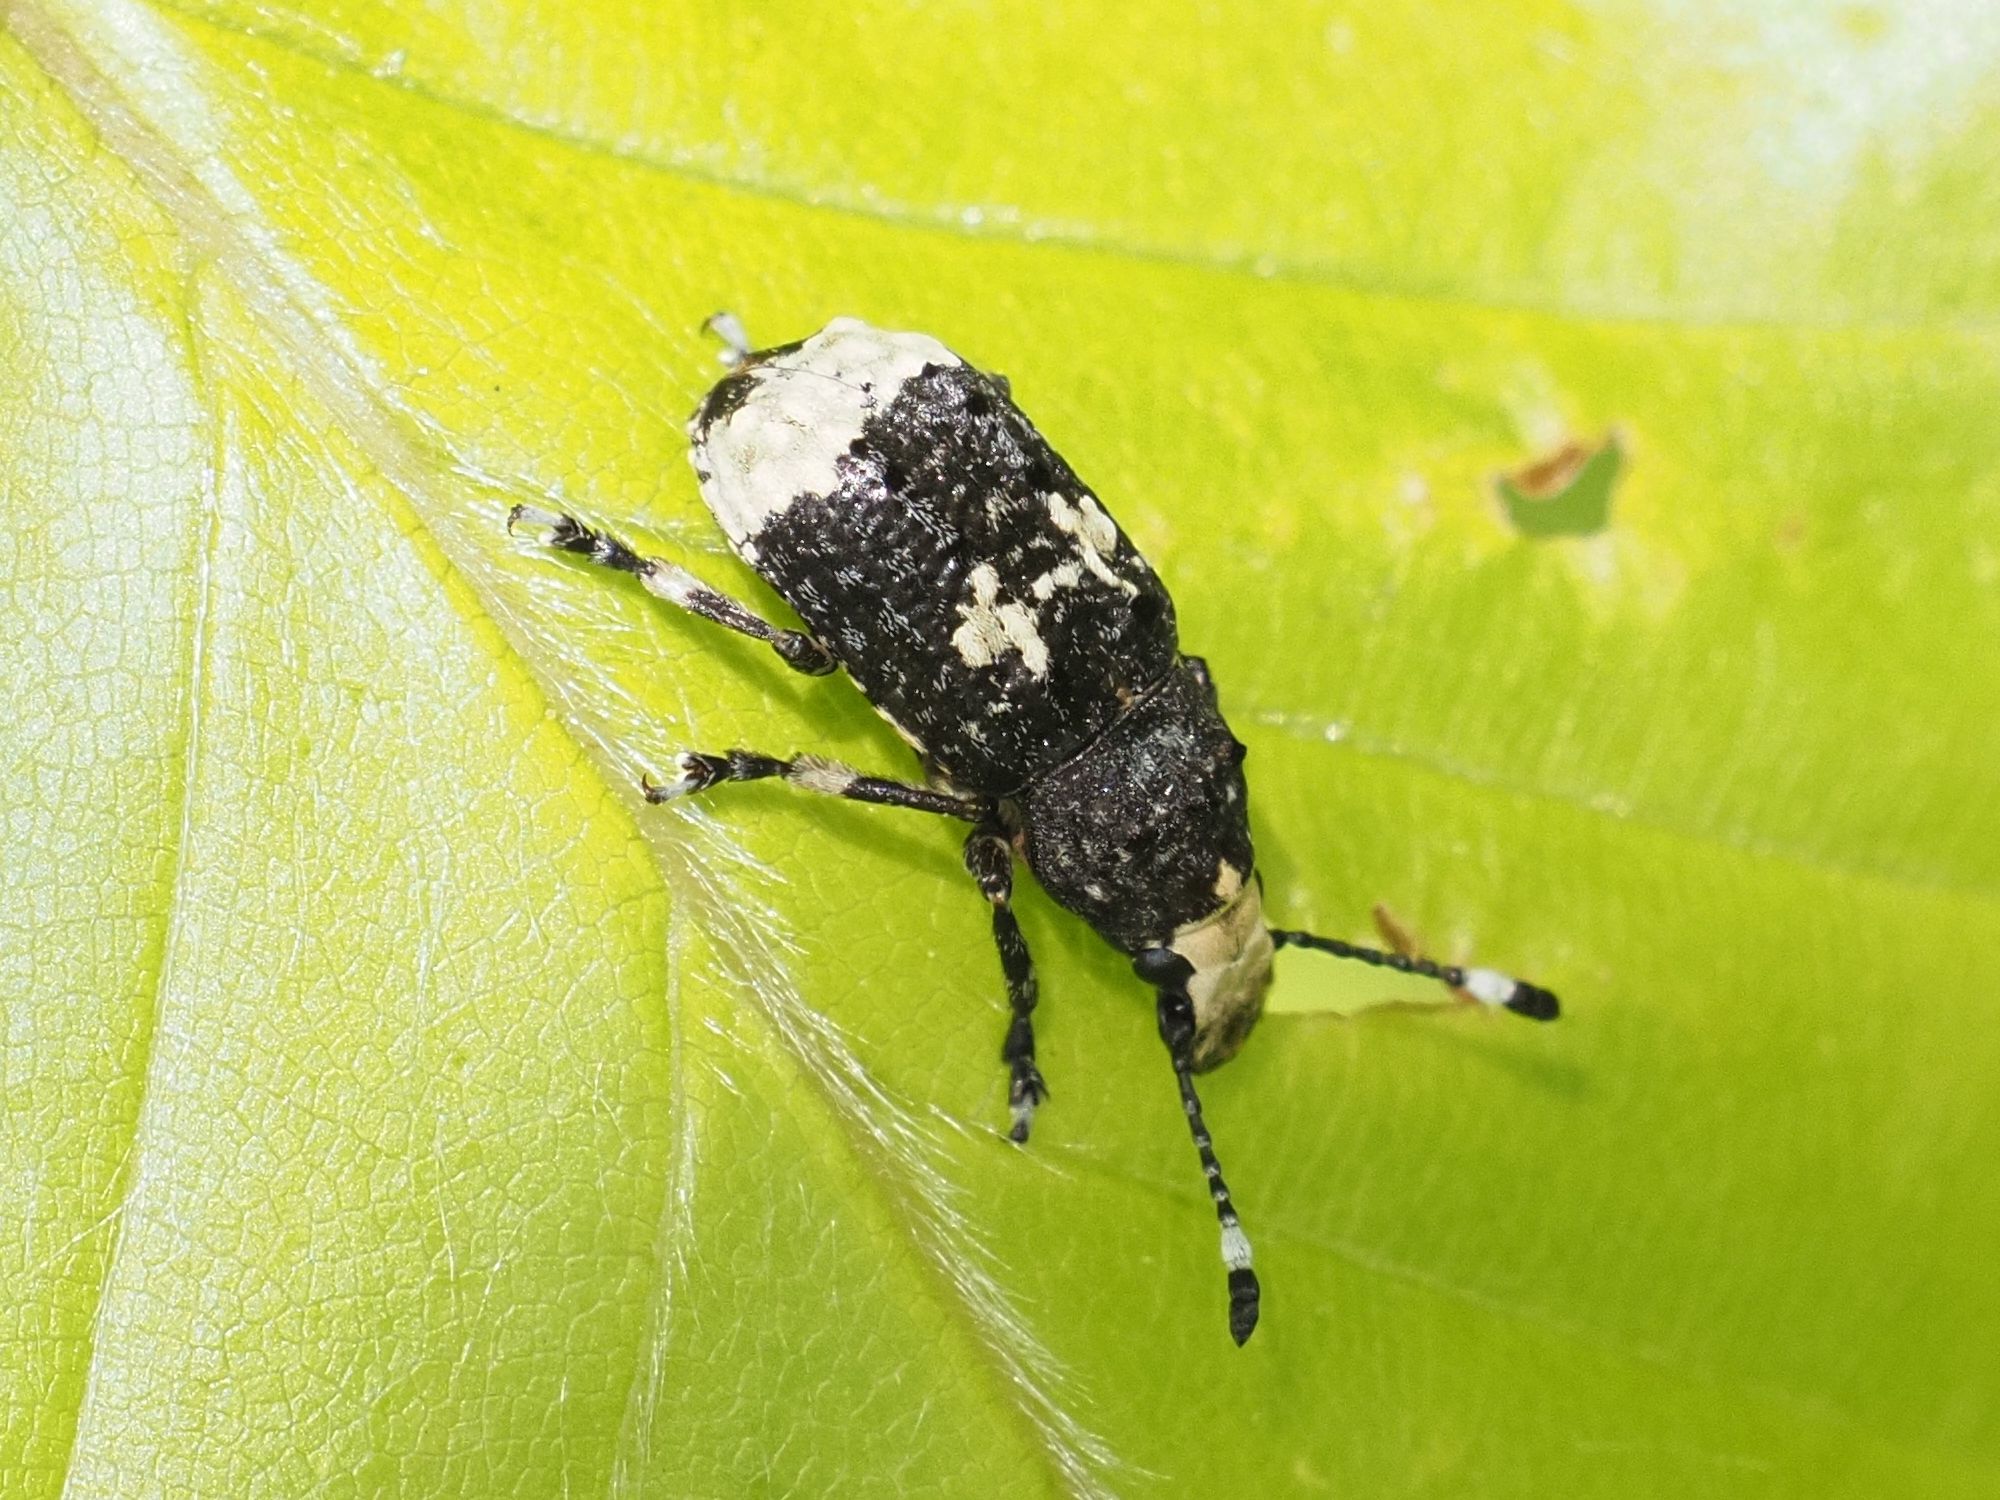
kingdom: Animalia
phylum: Arthropoda
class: Insecta
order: Coleoptera
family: Anthribidae
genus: Platystomos
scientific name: Platystomos albinus
